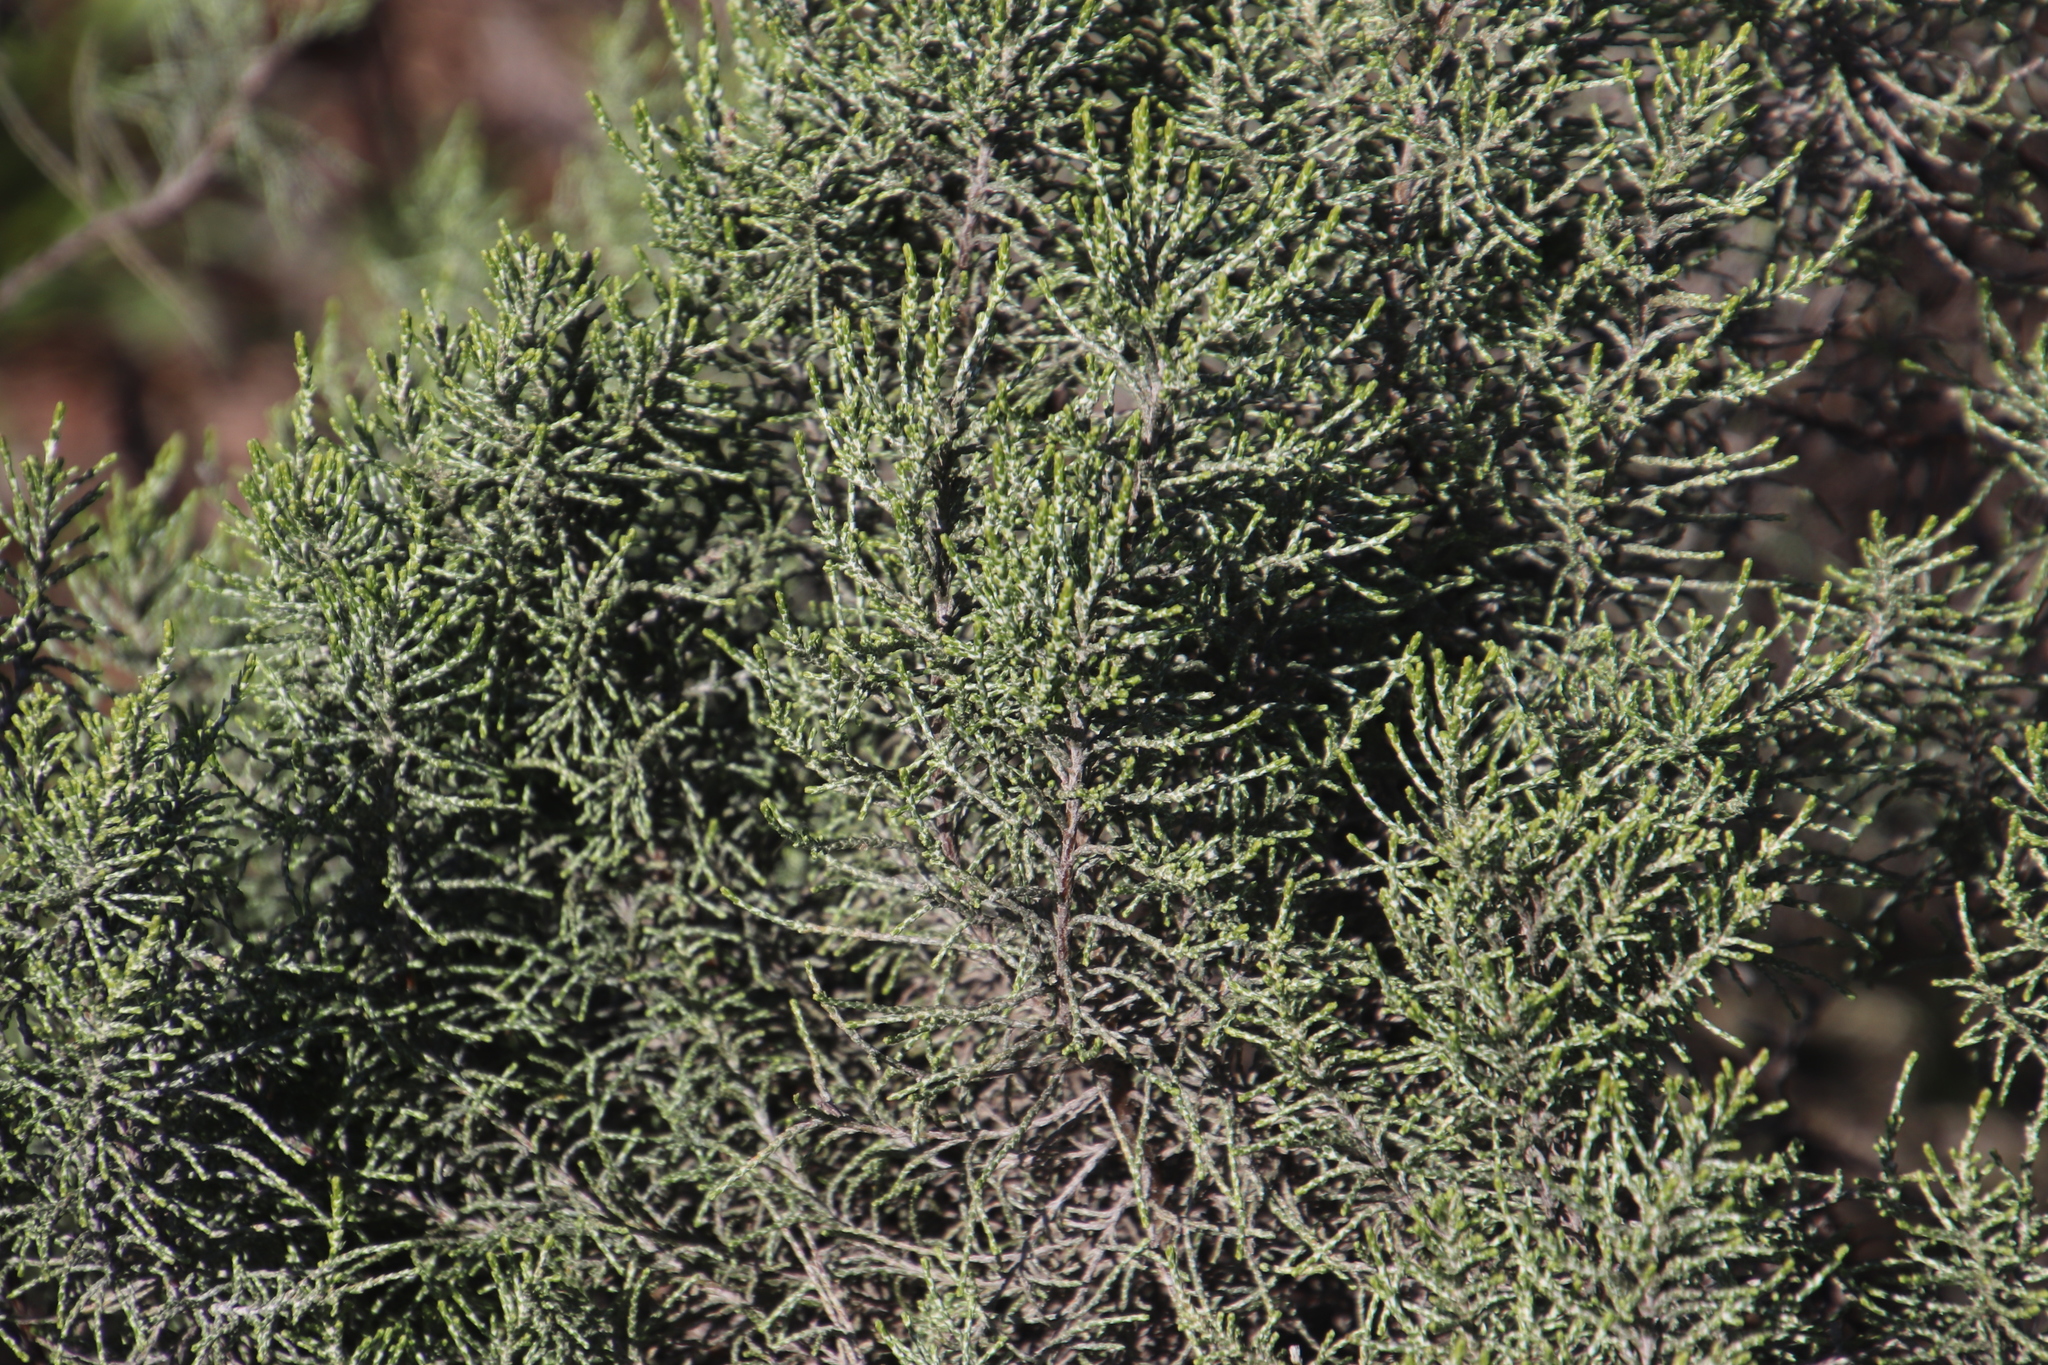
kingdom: Plantae
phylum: Tracheophyta
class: Magnoliopsida
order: Asterales
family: Asteraceae
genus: Dicerothamnus
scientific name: Dicerothamnus rhinocerotis
